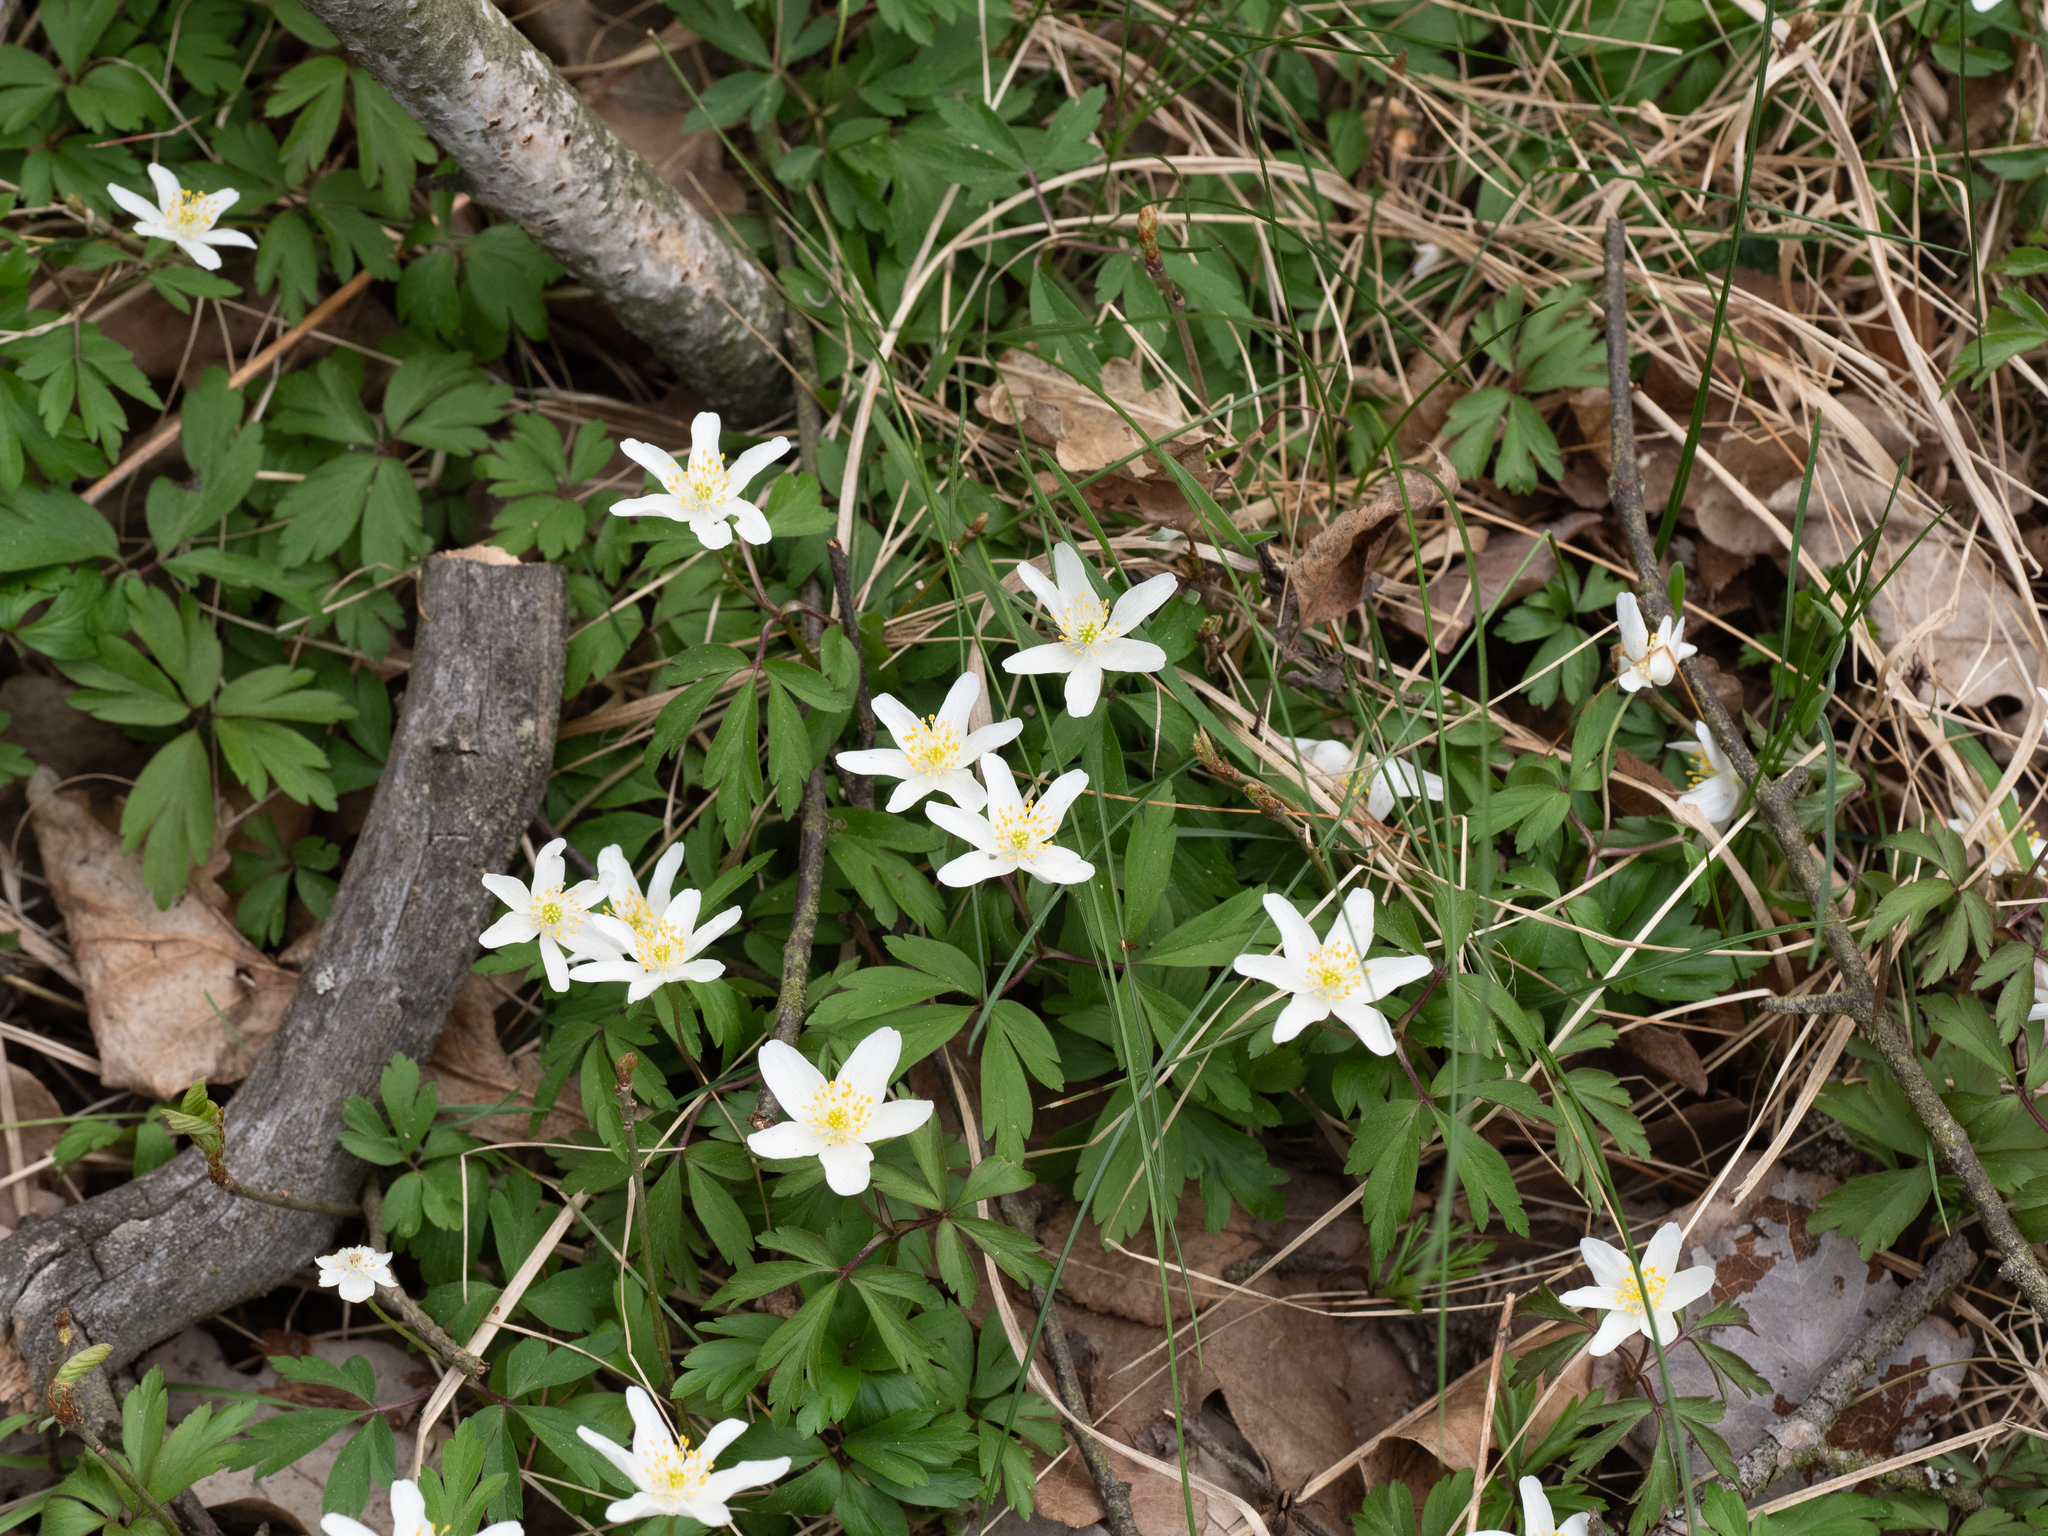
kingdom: Plantae
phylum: Tracheophyta
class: Magnoliopsida
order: Ranunculales
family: Ranunculaceae
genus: Anemone
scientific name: Anemone nemorosa
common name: Wood anemone
